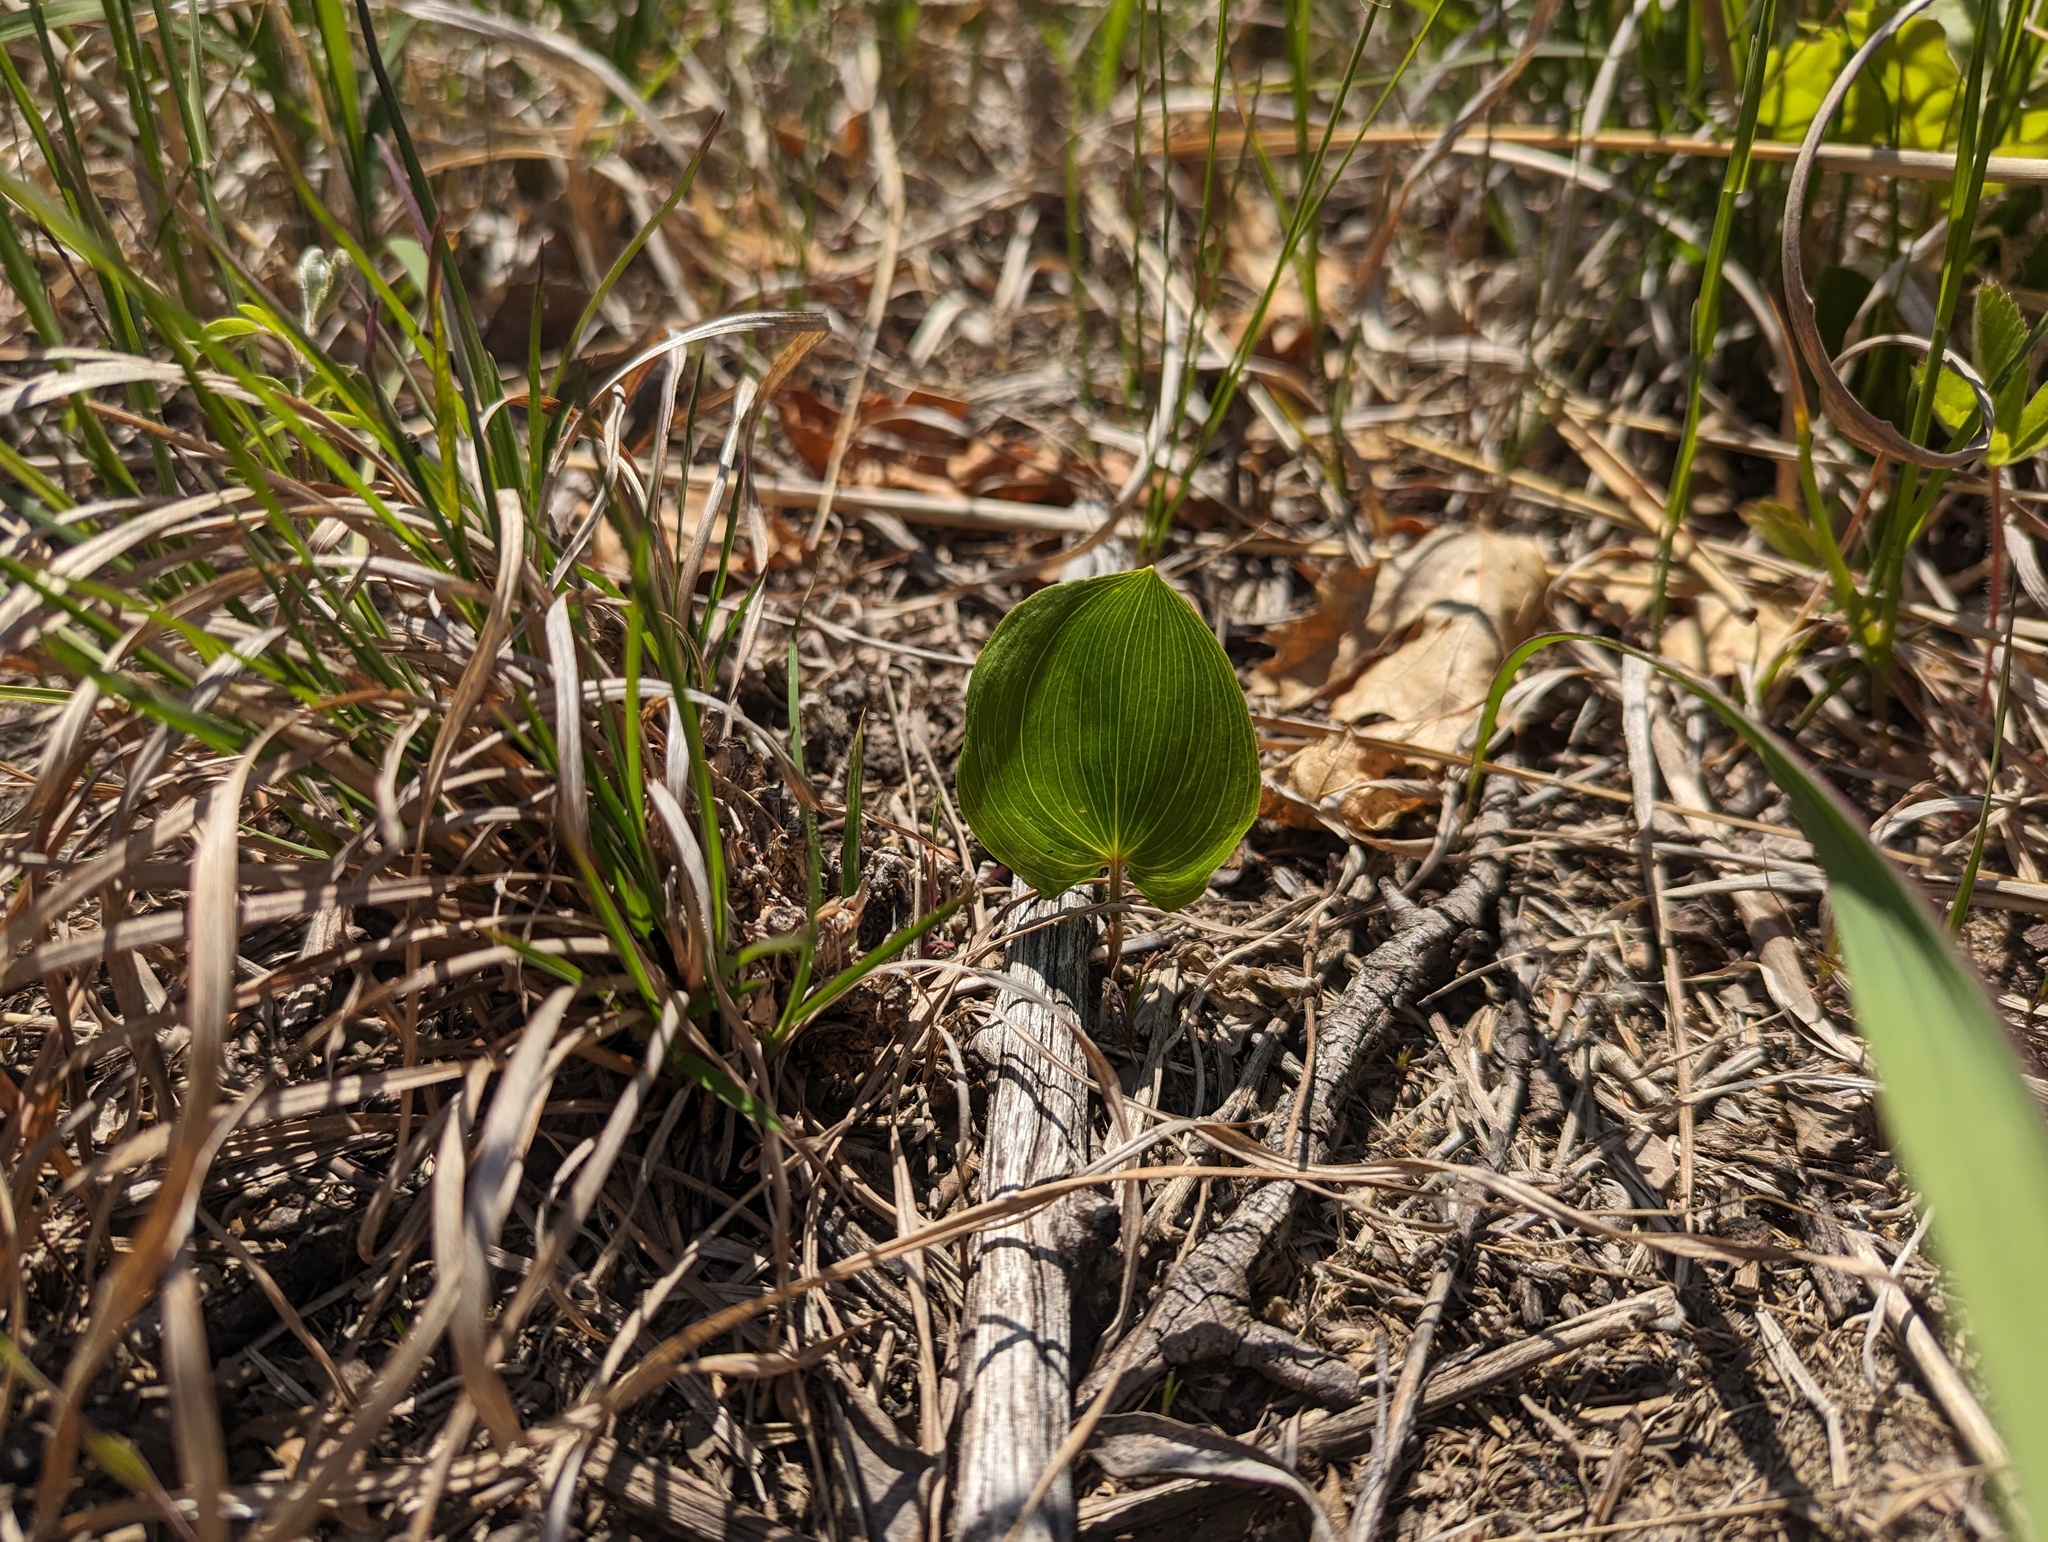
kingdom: Plantae
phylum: Tracheophyta
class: Liliopsida
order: Asparagales
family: Asparagaceae
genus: Maianthemum
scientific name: Maianthemum canadense
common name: False lily-of-the-valley
